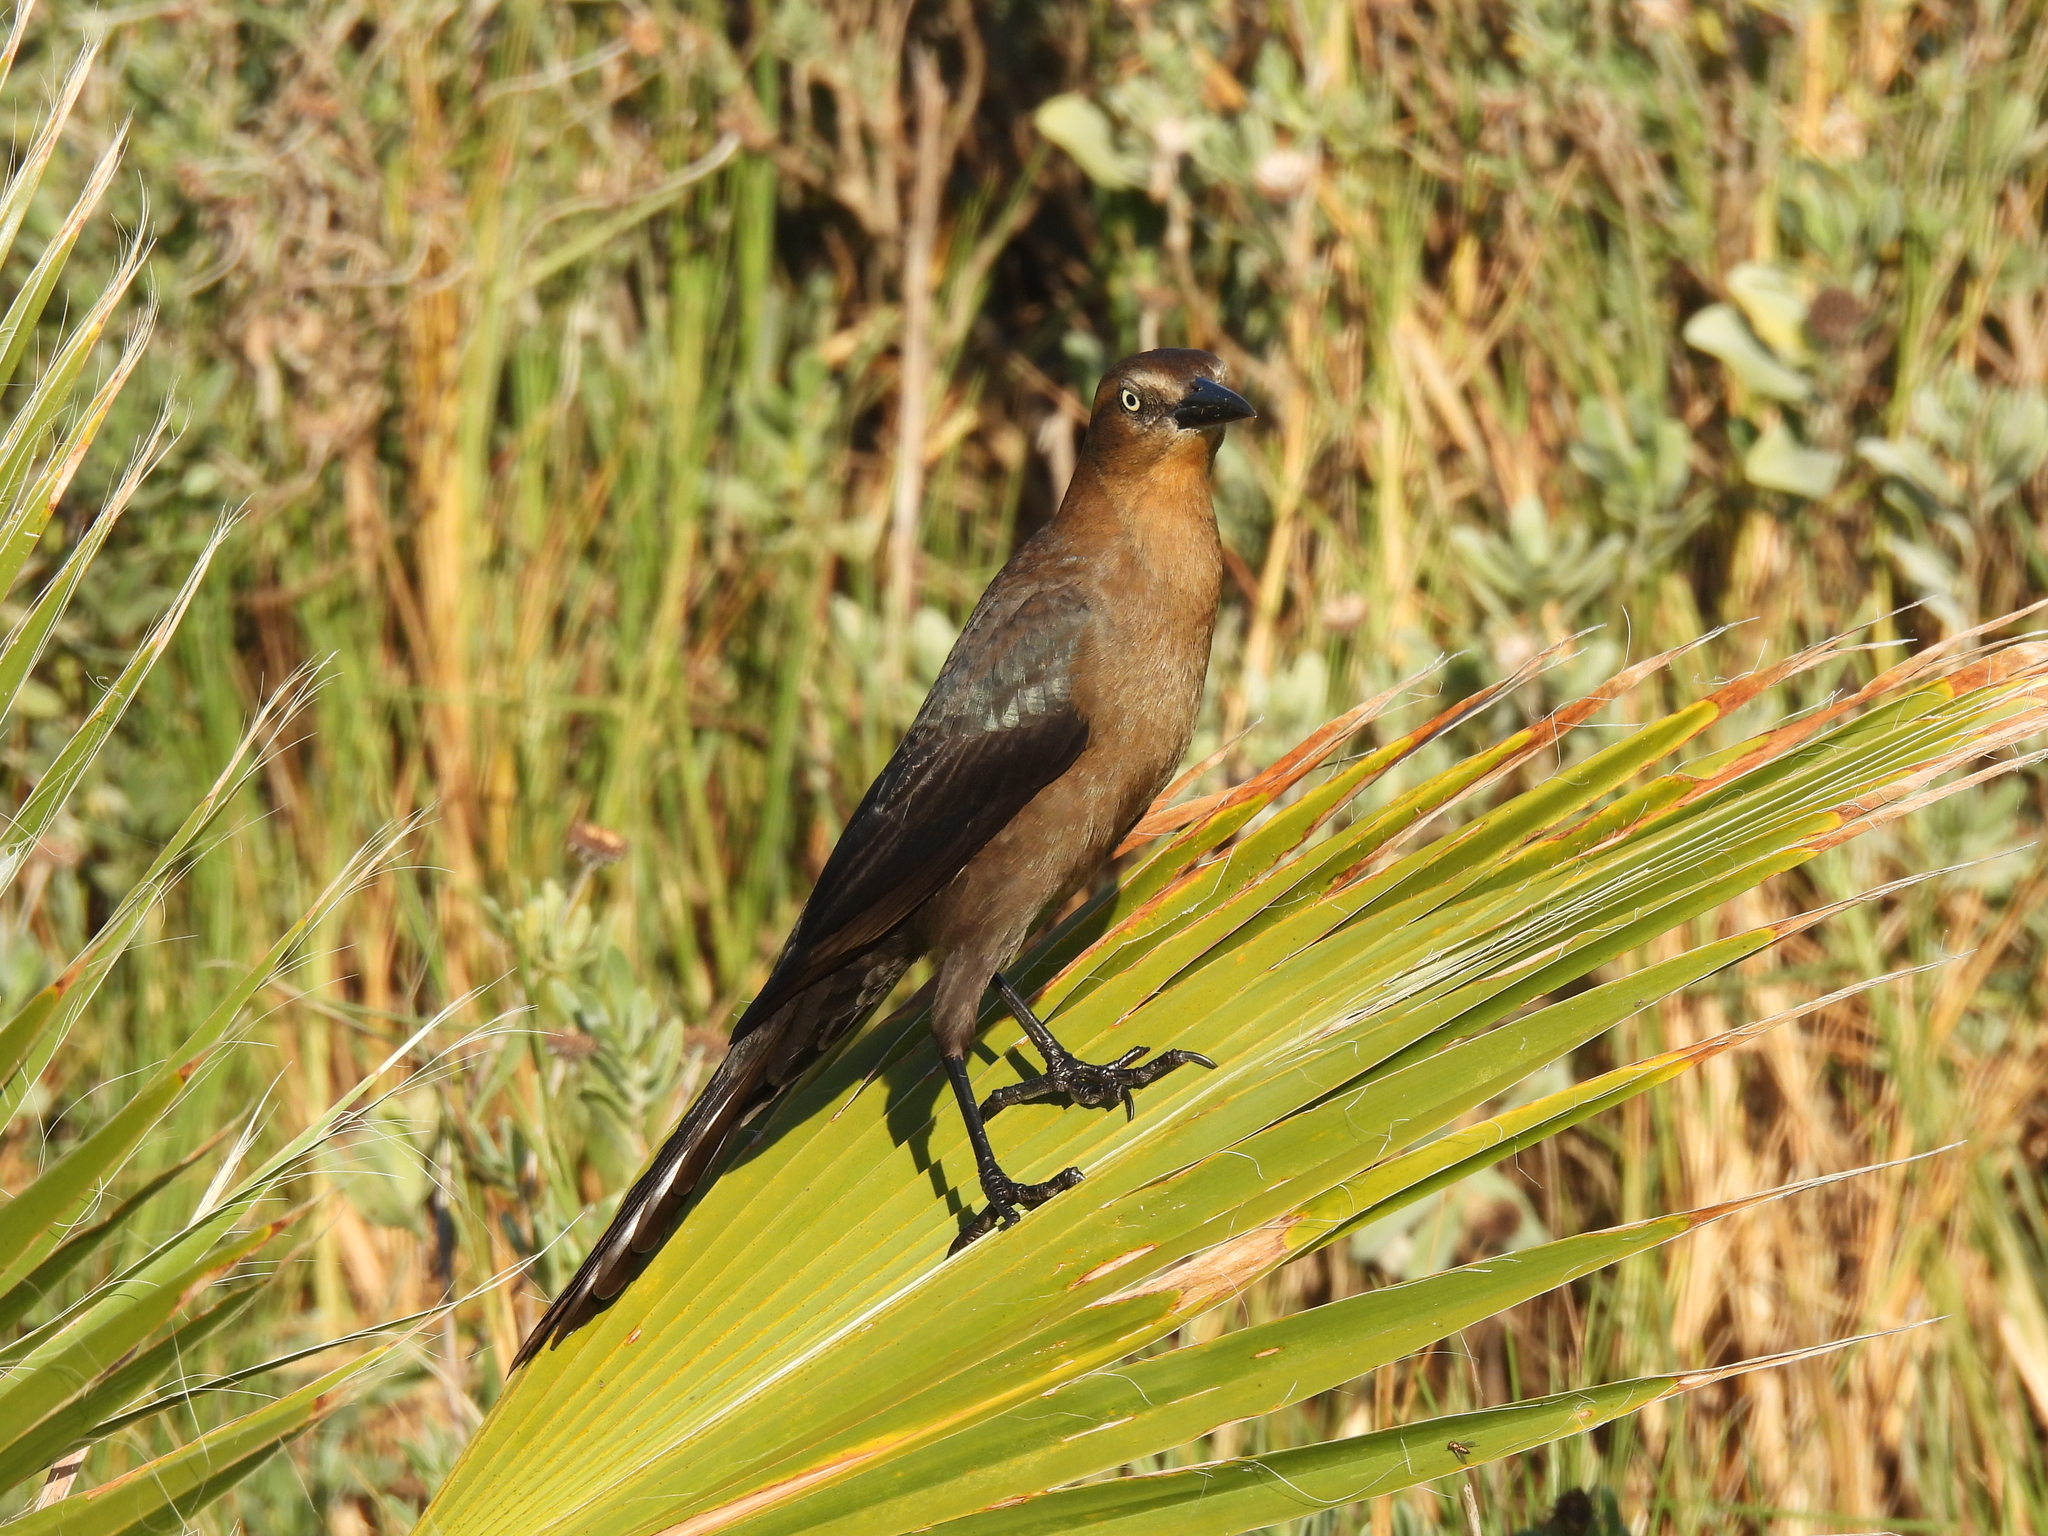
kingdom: Animalia
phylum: Chordata
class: Aves
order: Passeriformes
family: Icteridae
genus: Quiscalus
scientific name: Quiscalus mexicanus
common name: Great-tailed grackle
